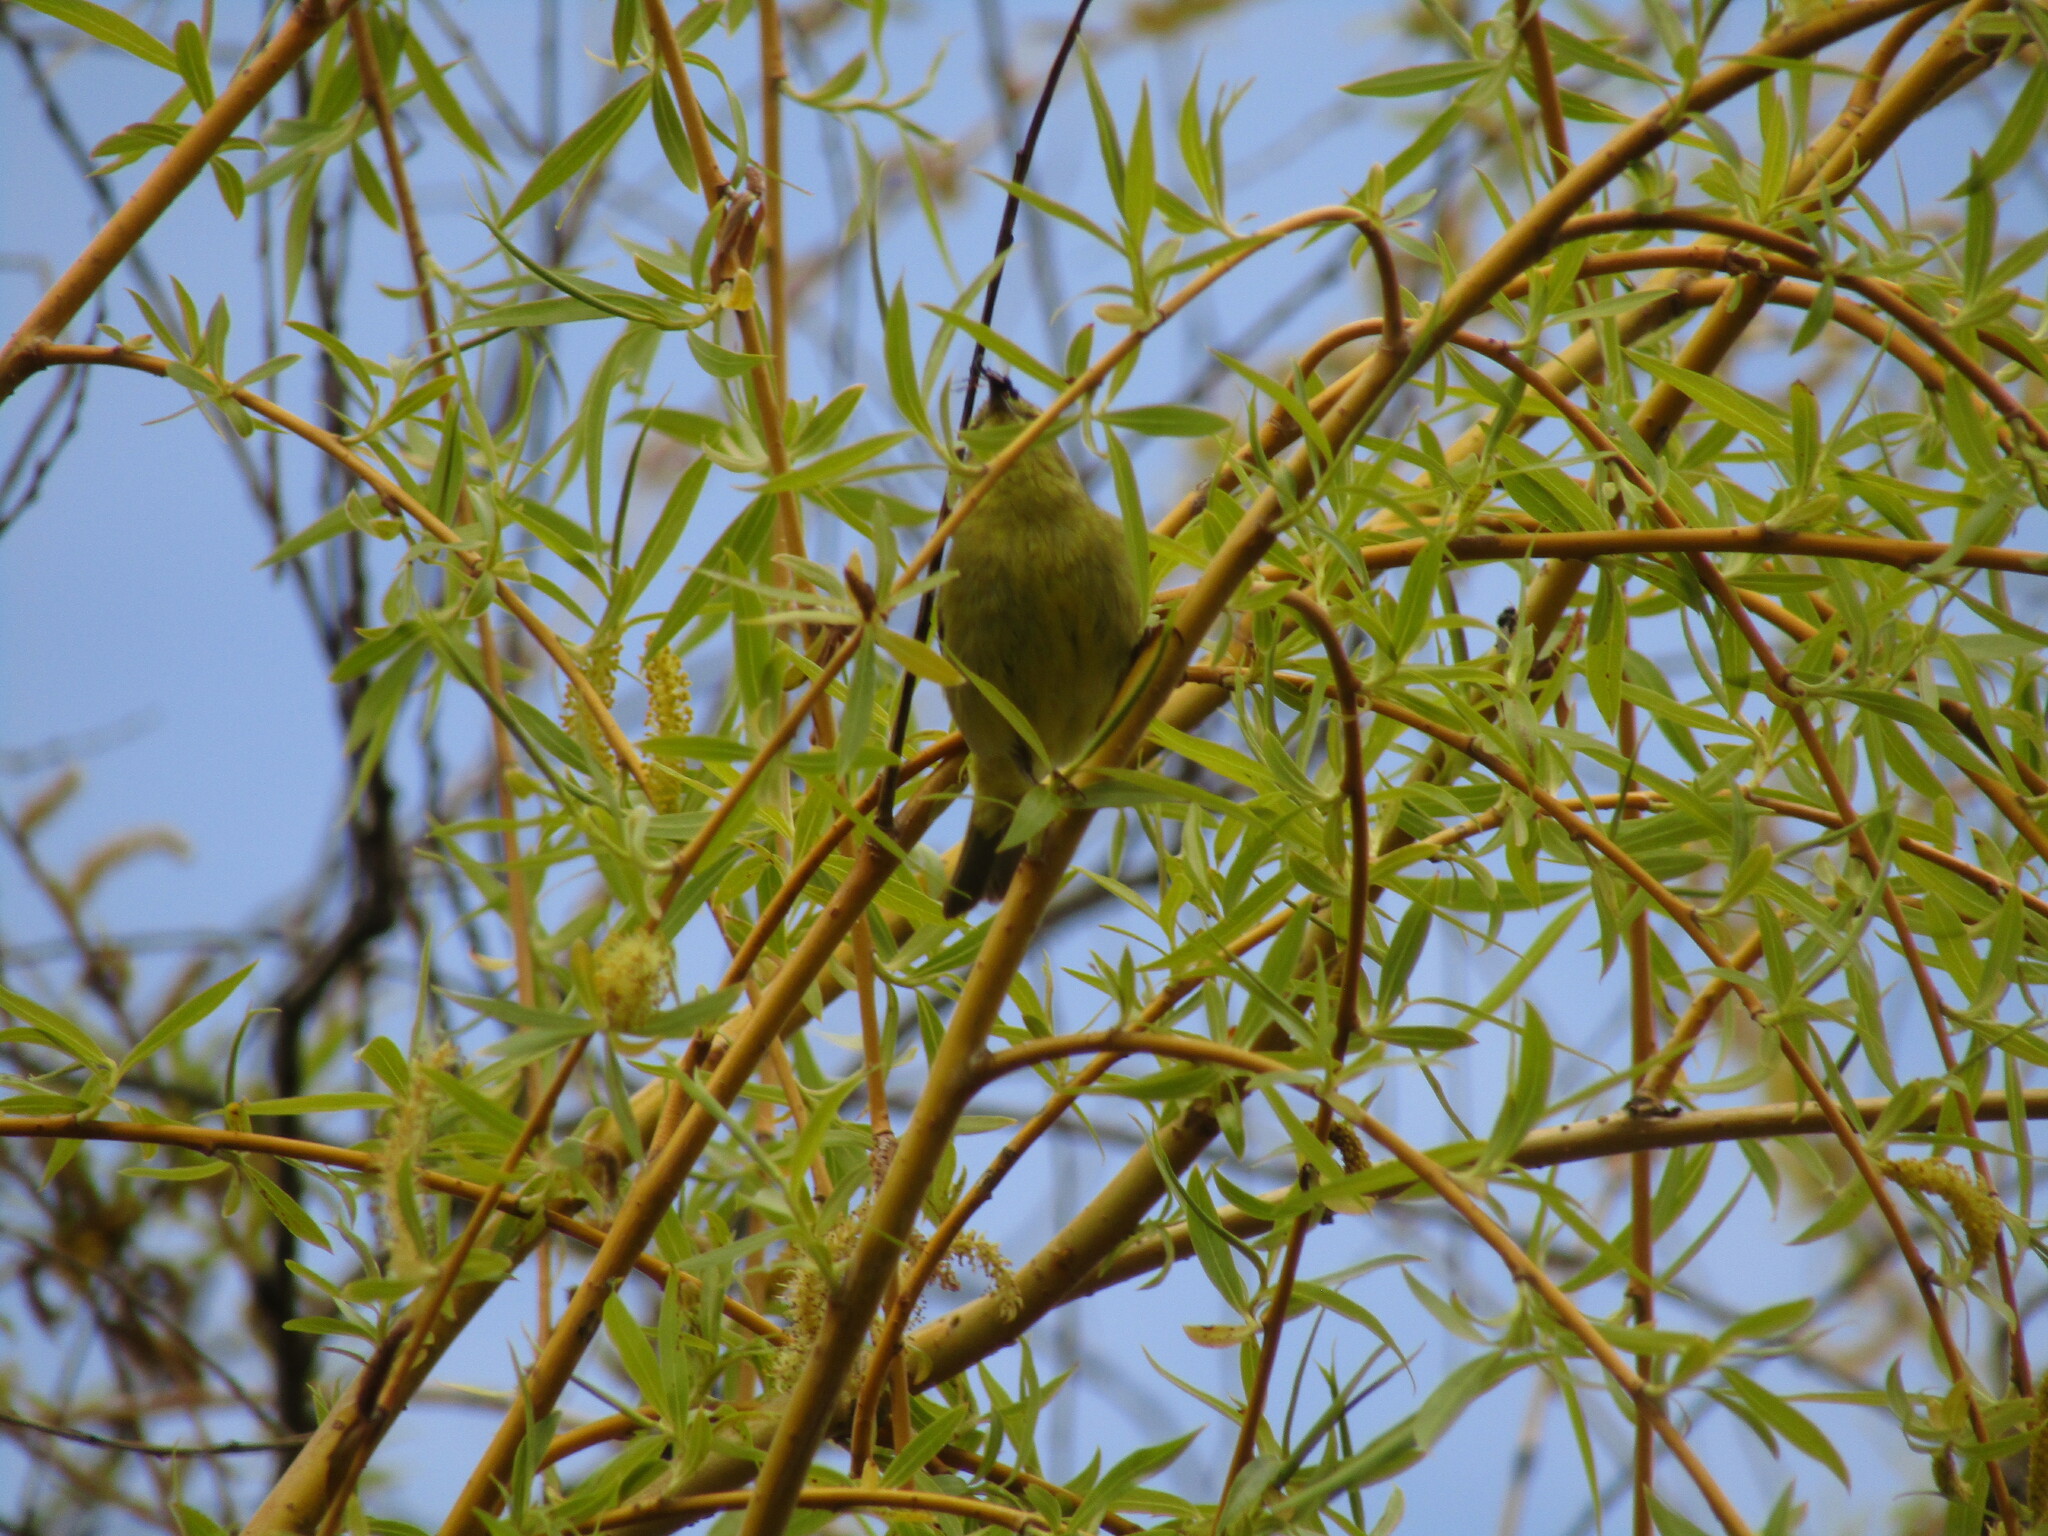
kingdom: Animalia
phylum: Chordata
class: Aves
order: Passeriformes
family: Parulidae
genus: Leiothlypis
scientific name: Leiothlypis celata
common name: Orange-crowned warbler
